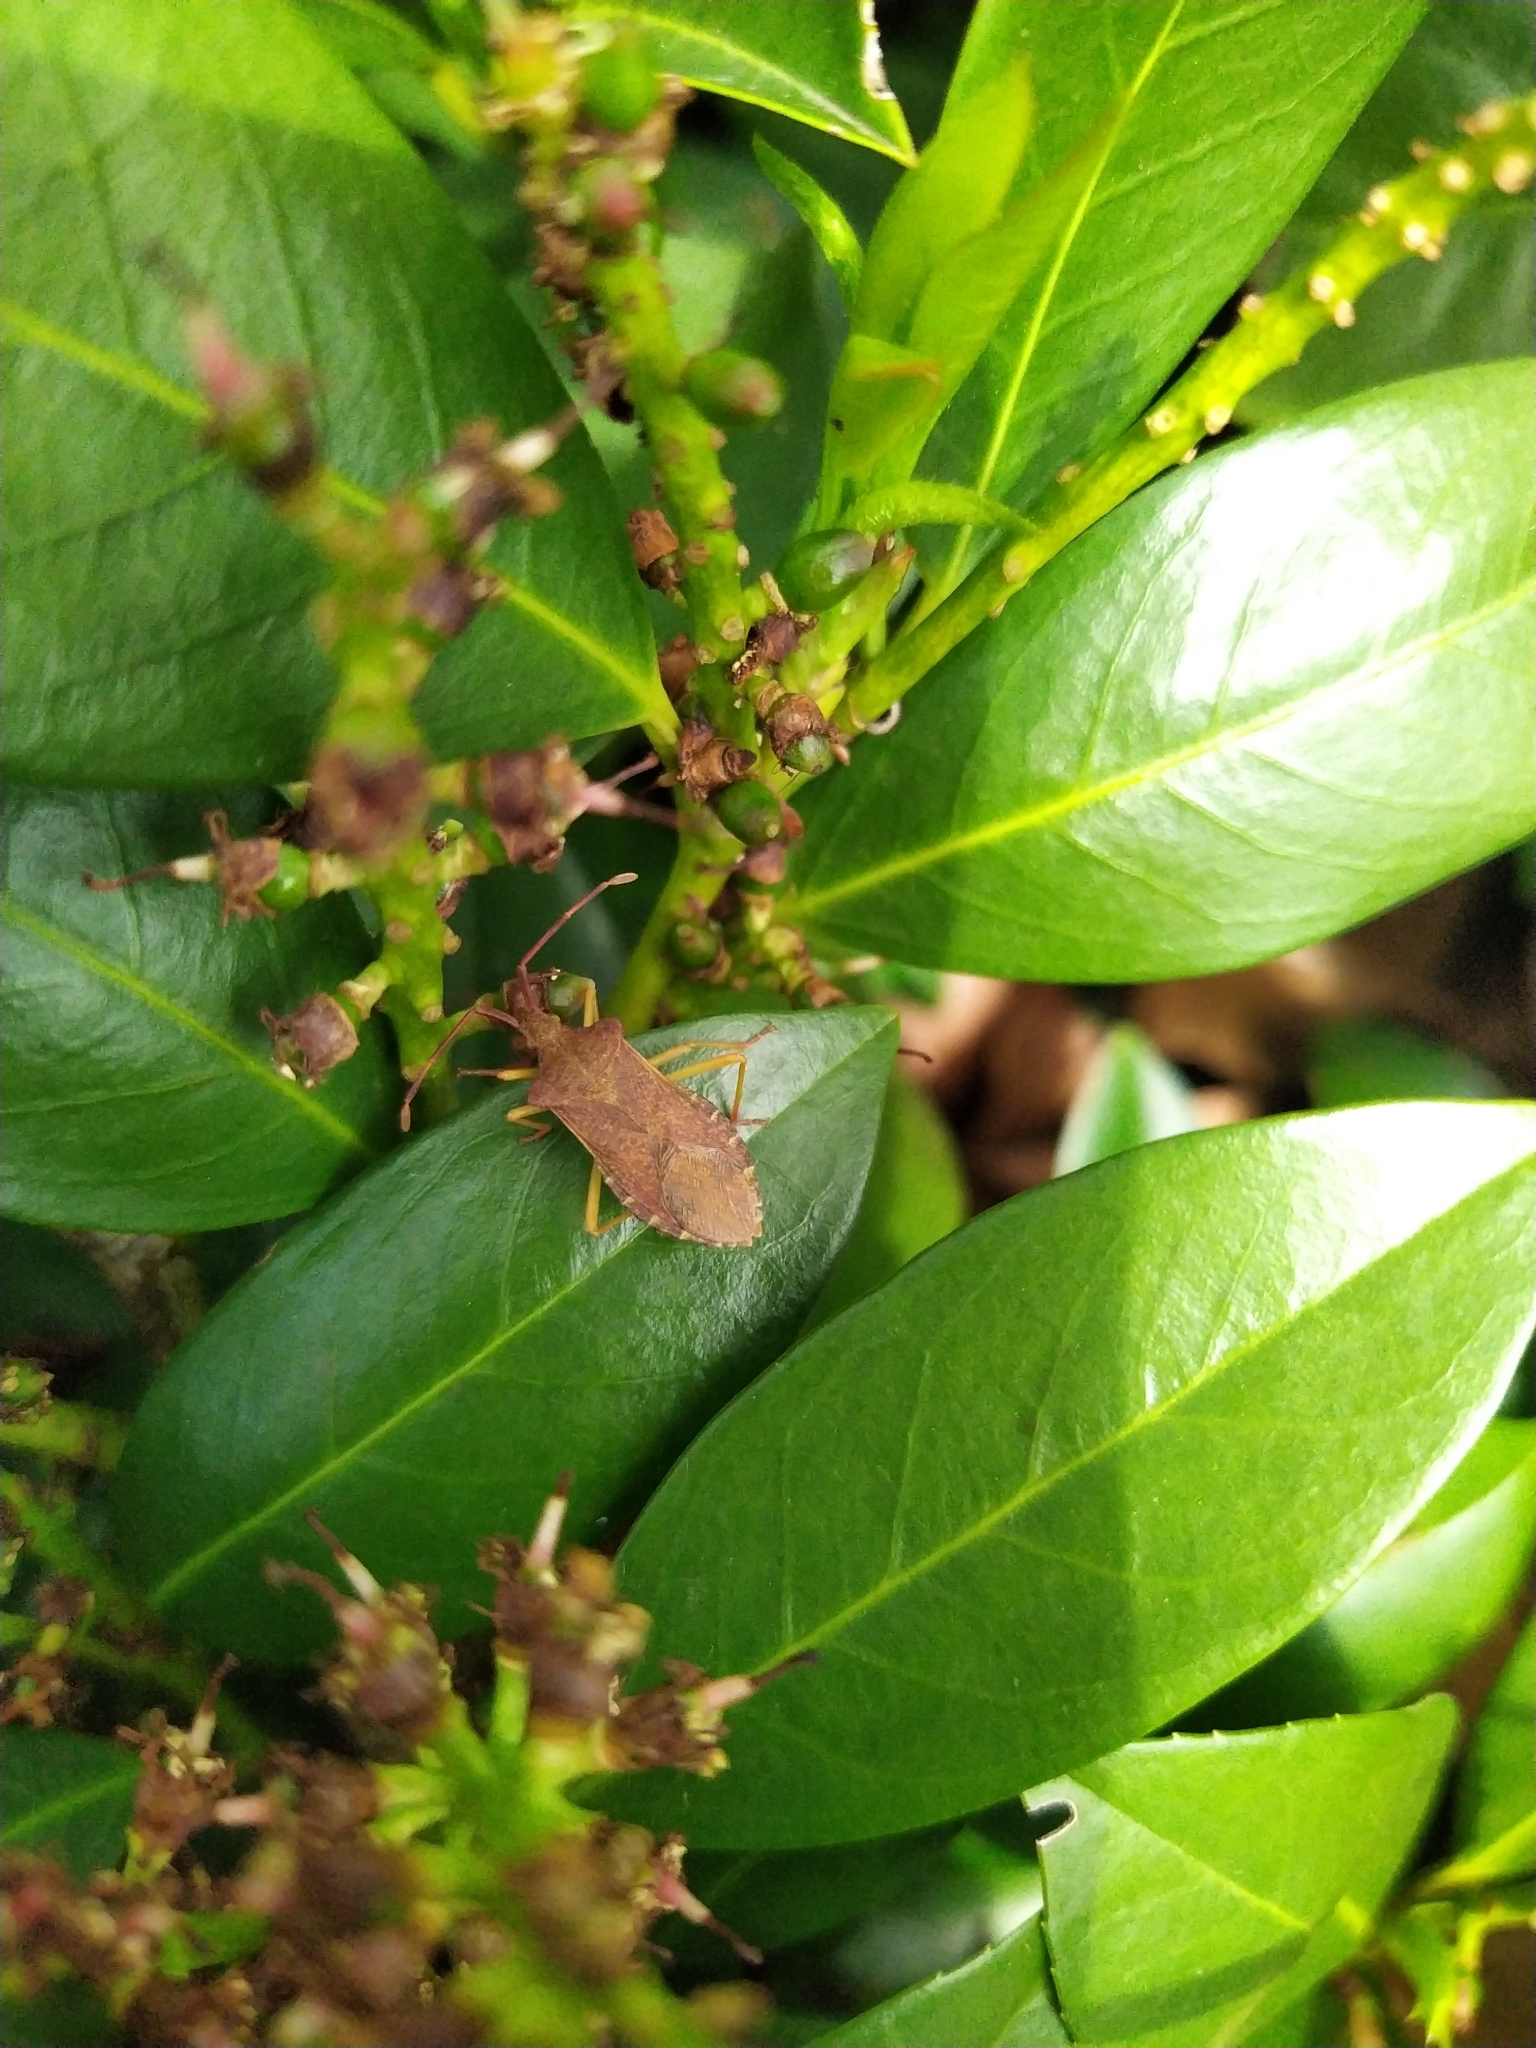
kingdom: Animalia
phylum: Arthropoda
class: Insecta
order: Hemiptera
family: Coreidae
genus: Gonocerus
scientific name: Gonocerus acuteangulatus
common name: Box bug
